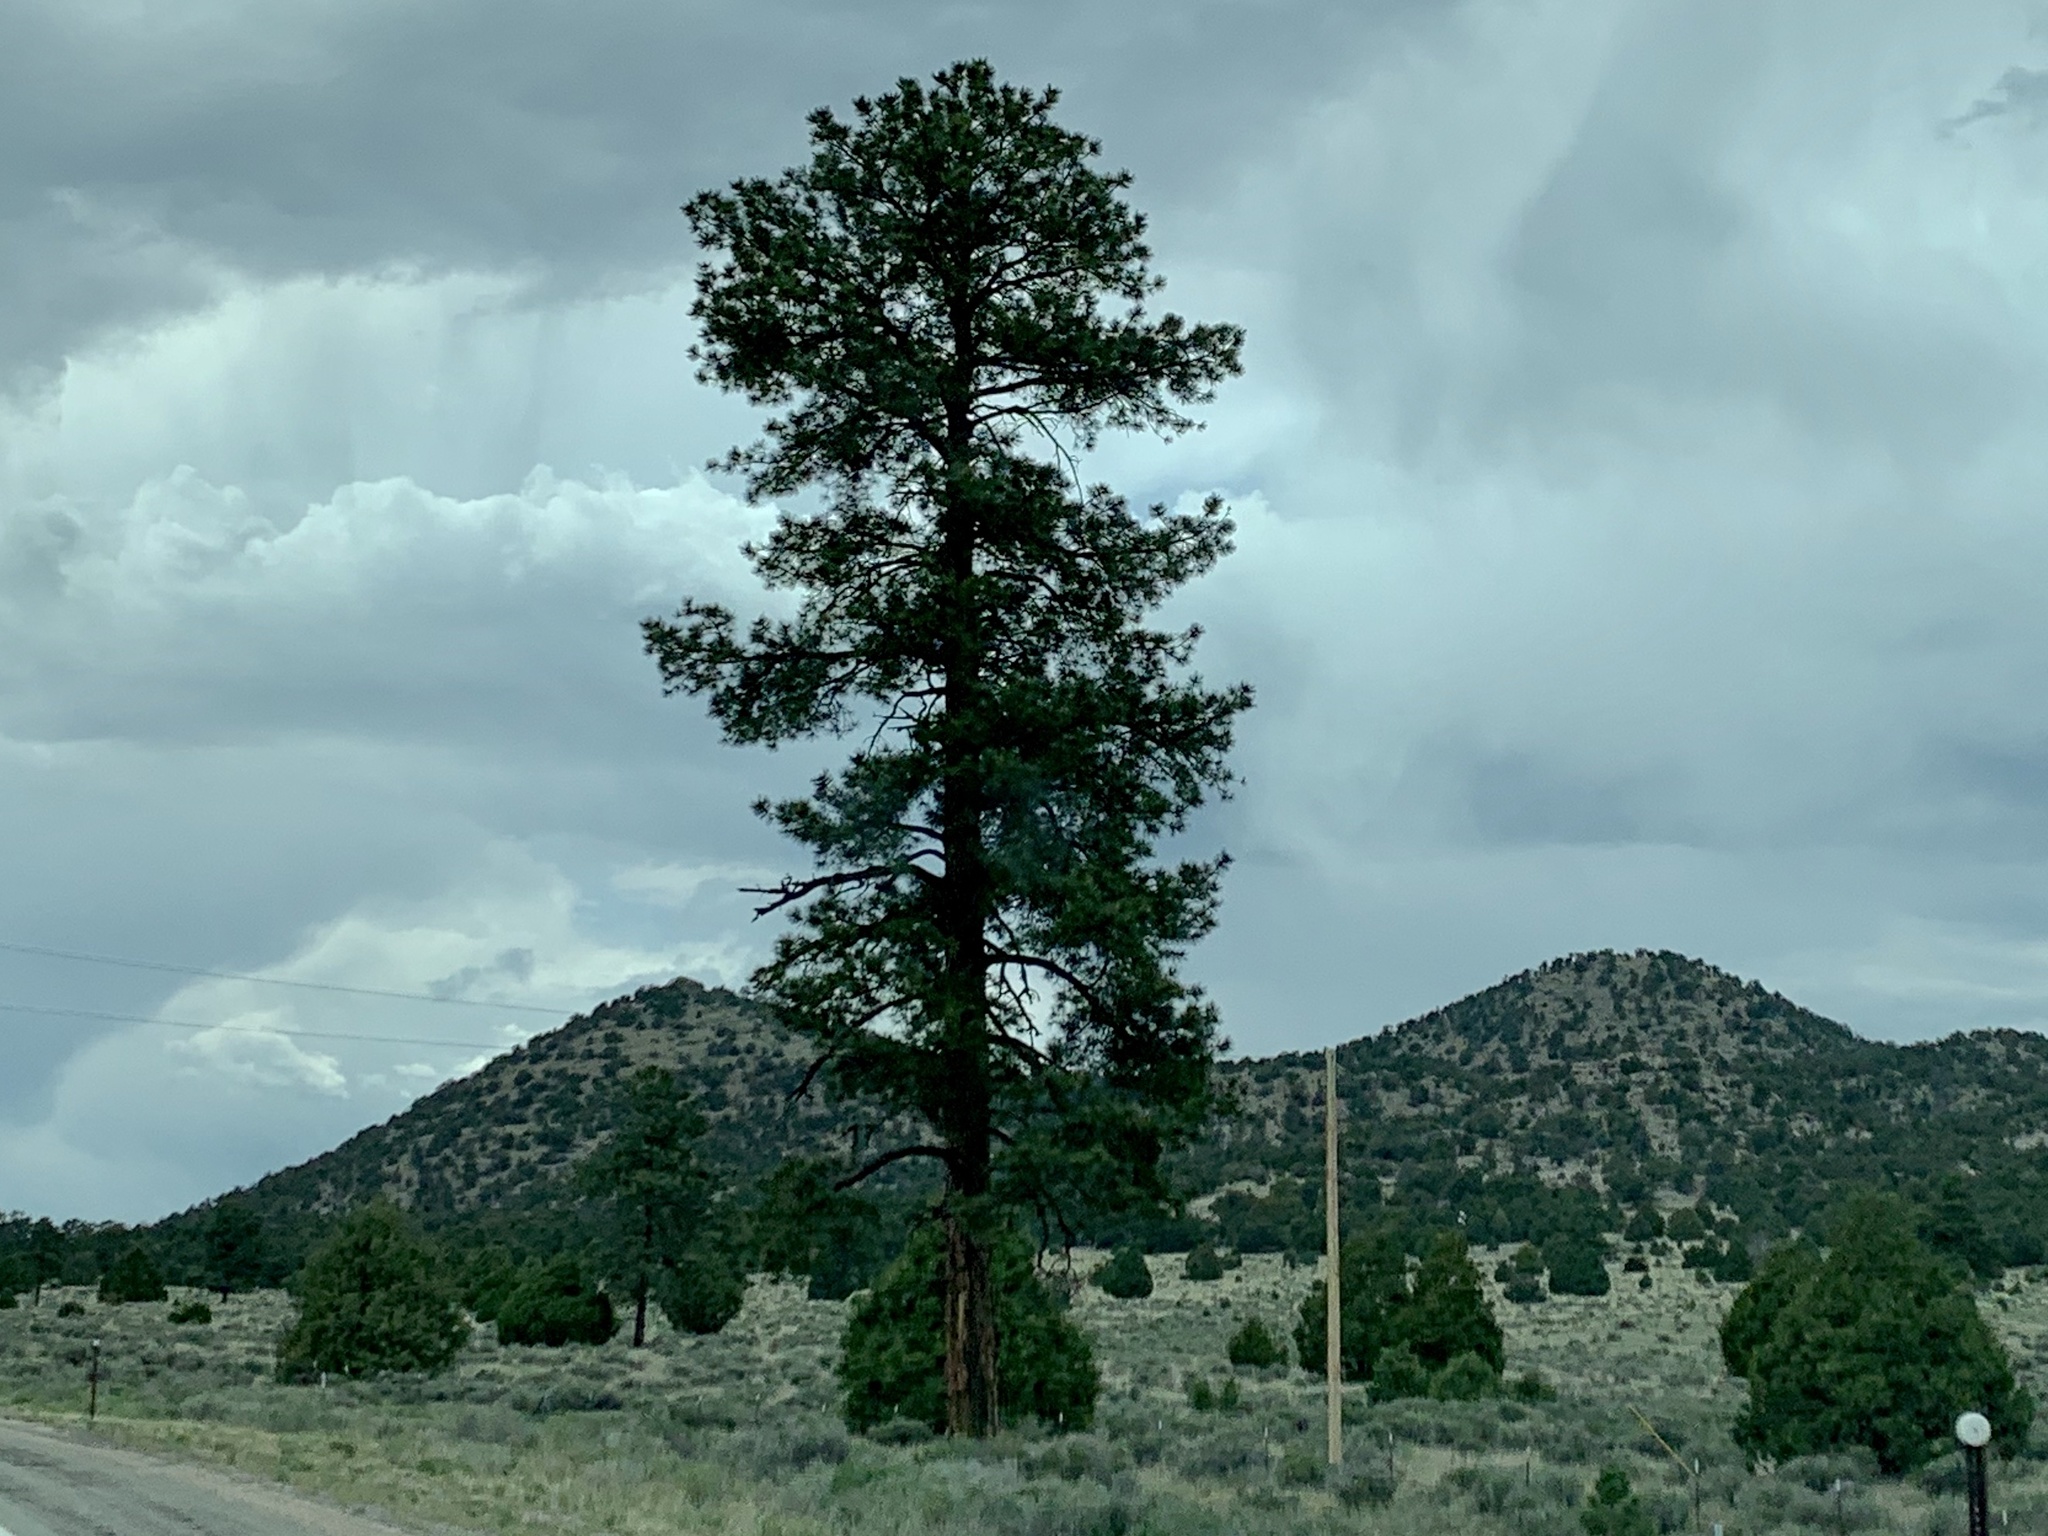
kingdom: Plantae
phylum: Tracheophyta
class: Pinopsida
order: Pinales
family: Pinaceae
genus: Pinus
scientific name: Pinus ponderosa
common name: Western yellow-pine
